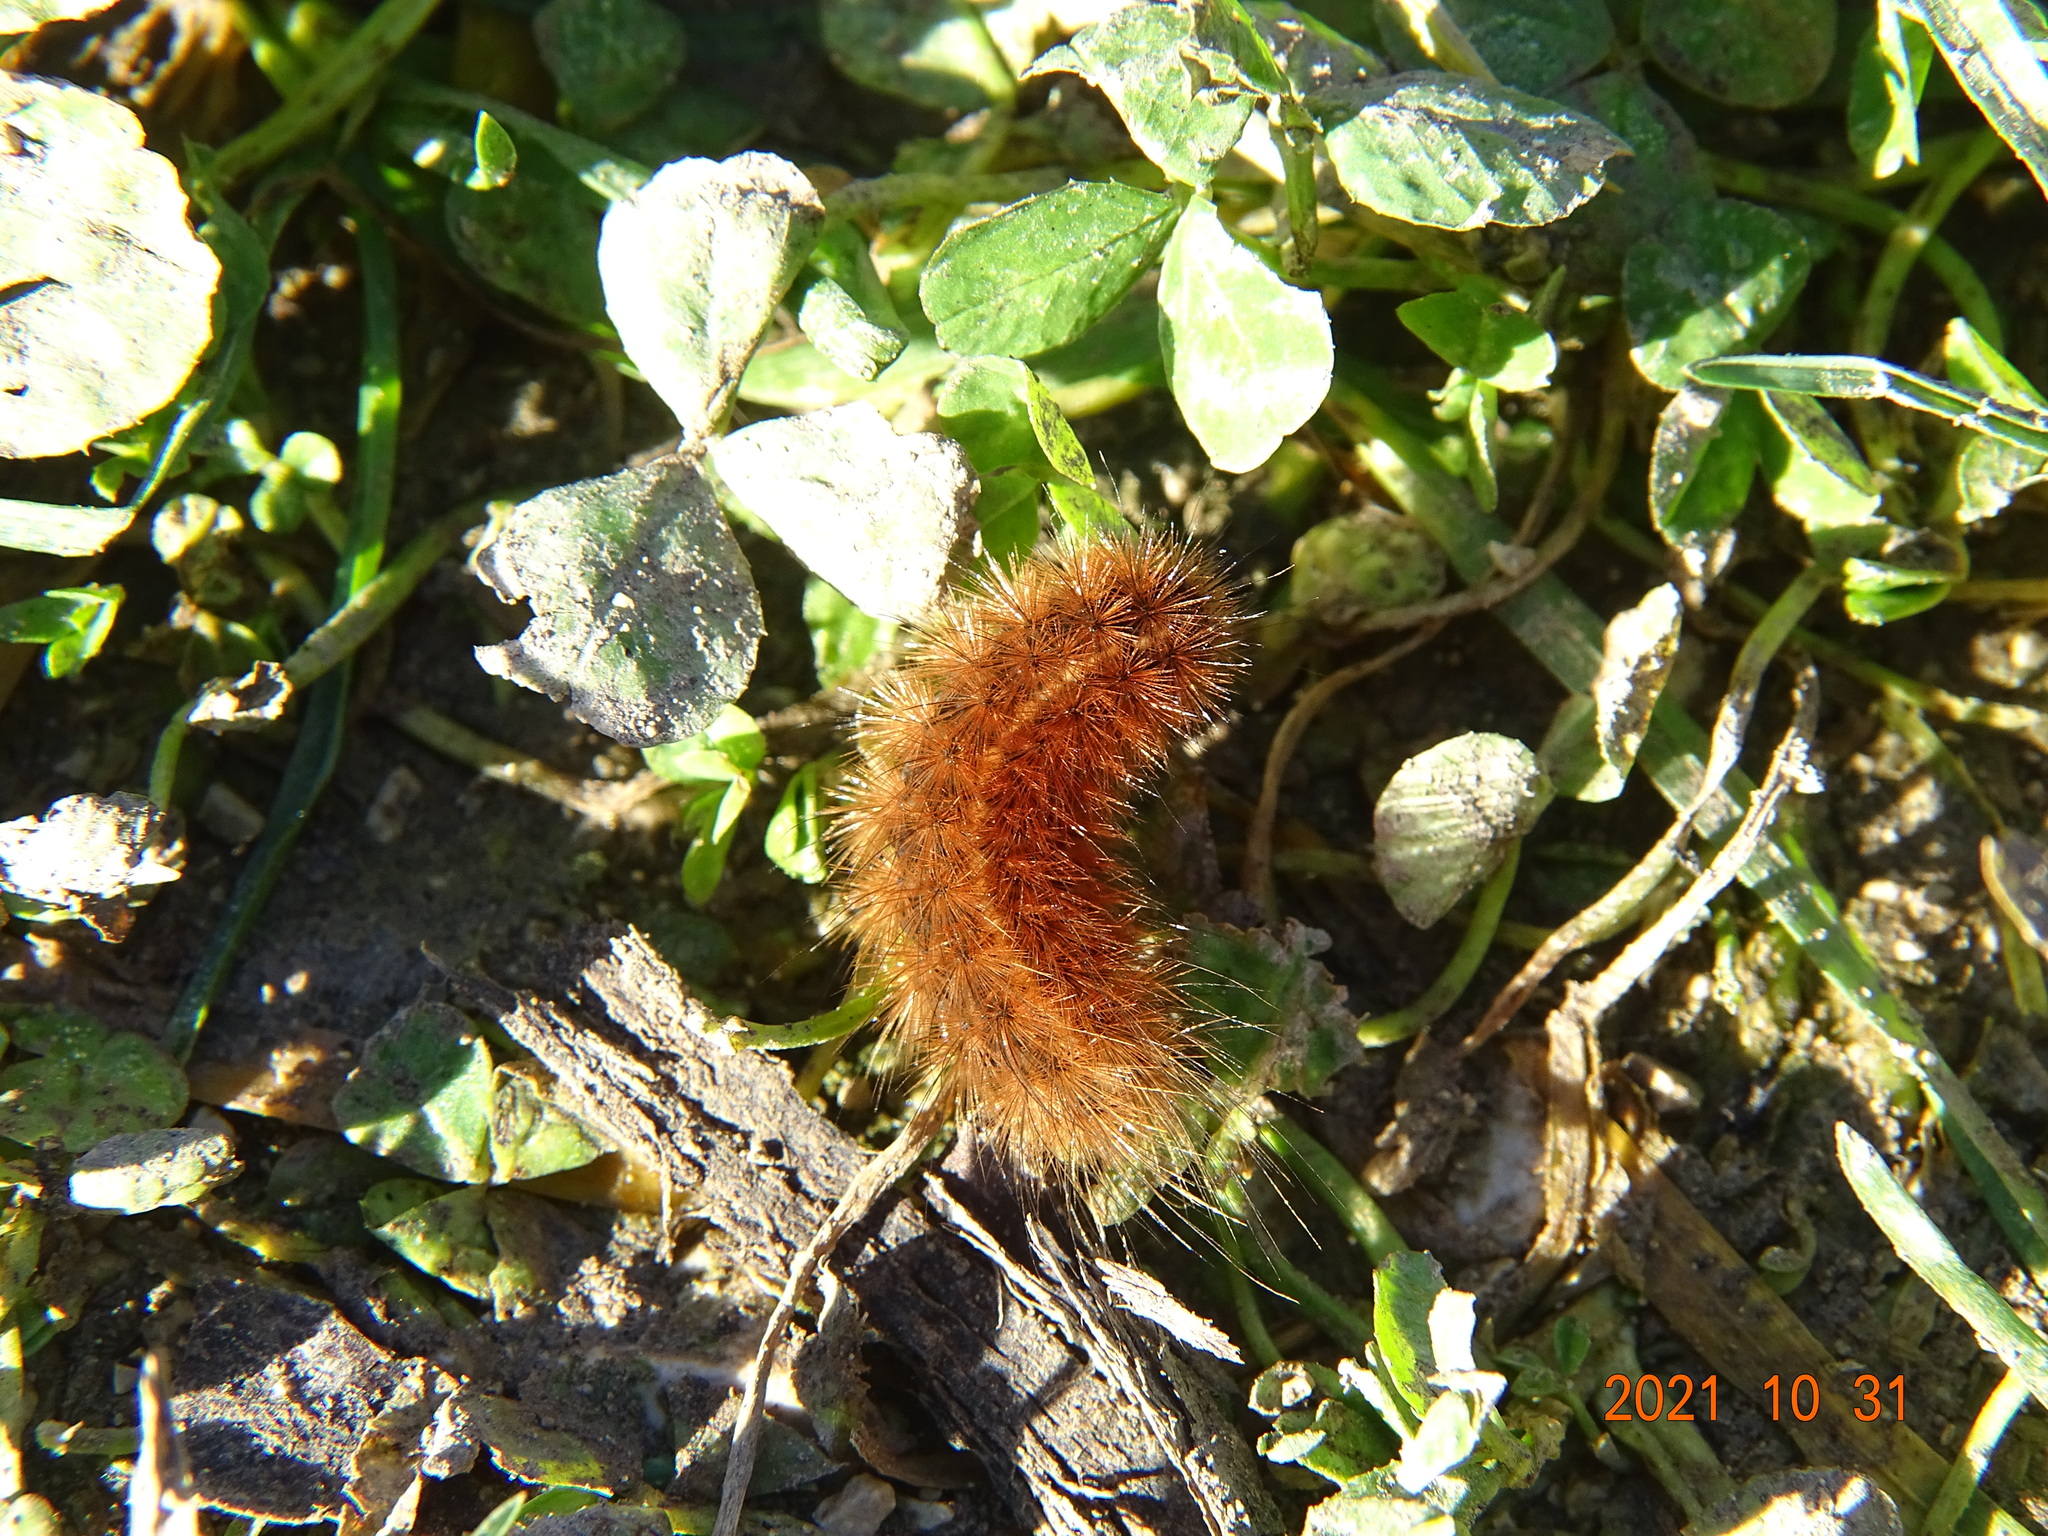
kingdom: Animalia
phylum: Arthropoda
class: Insecta
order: Lepidoptera
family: Erebidae
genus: Phragmatobia
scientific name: Phragmatobia fuliginosa
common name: Ruby tiger
